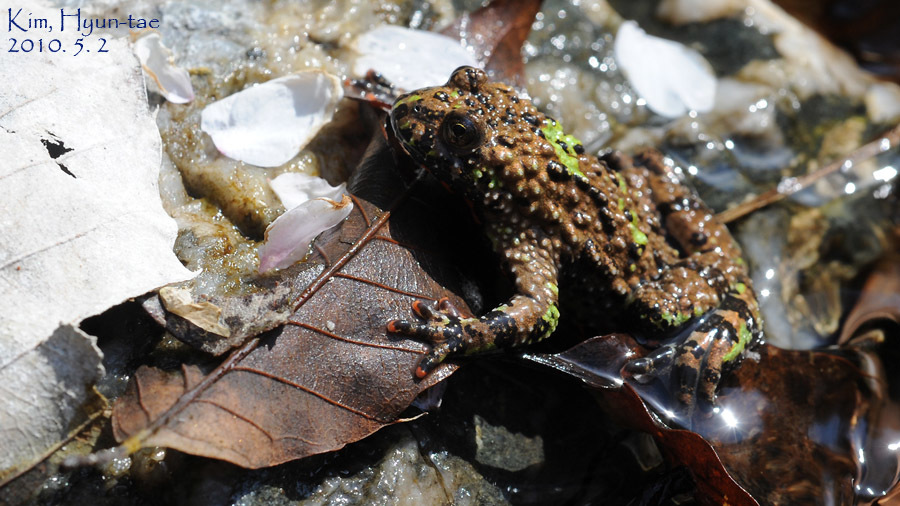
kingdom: Animalia
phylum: Chordata
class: Amphibia
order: Anura
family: Bombinatoridae
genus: Bombina
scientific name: Bombina orientalis
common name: Oriental firebelly toad
